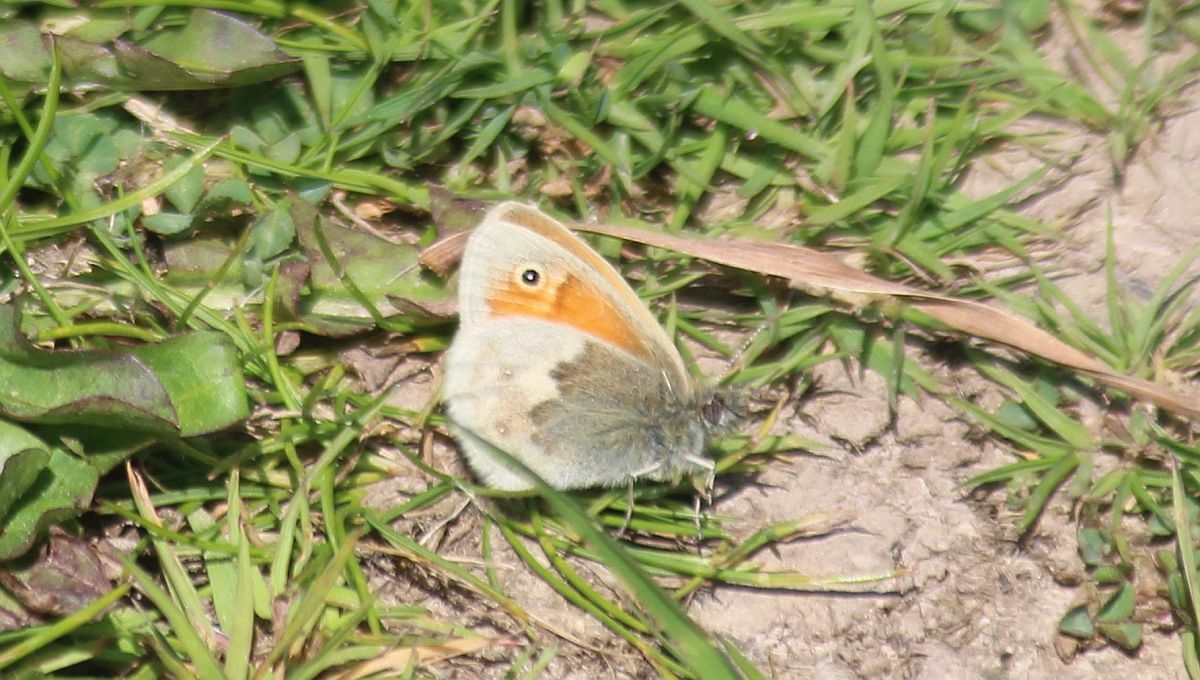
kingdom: Animalia
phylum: Arthropoda
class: Insecta
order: Lepidoptera
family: Nymphalidae
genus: Coenonympha
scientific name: Coenonympha pamphilus
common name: Small heath
